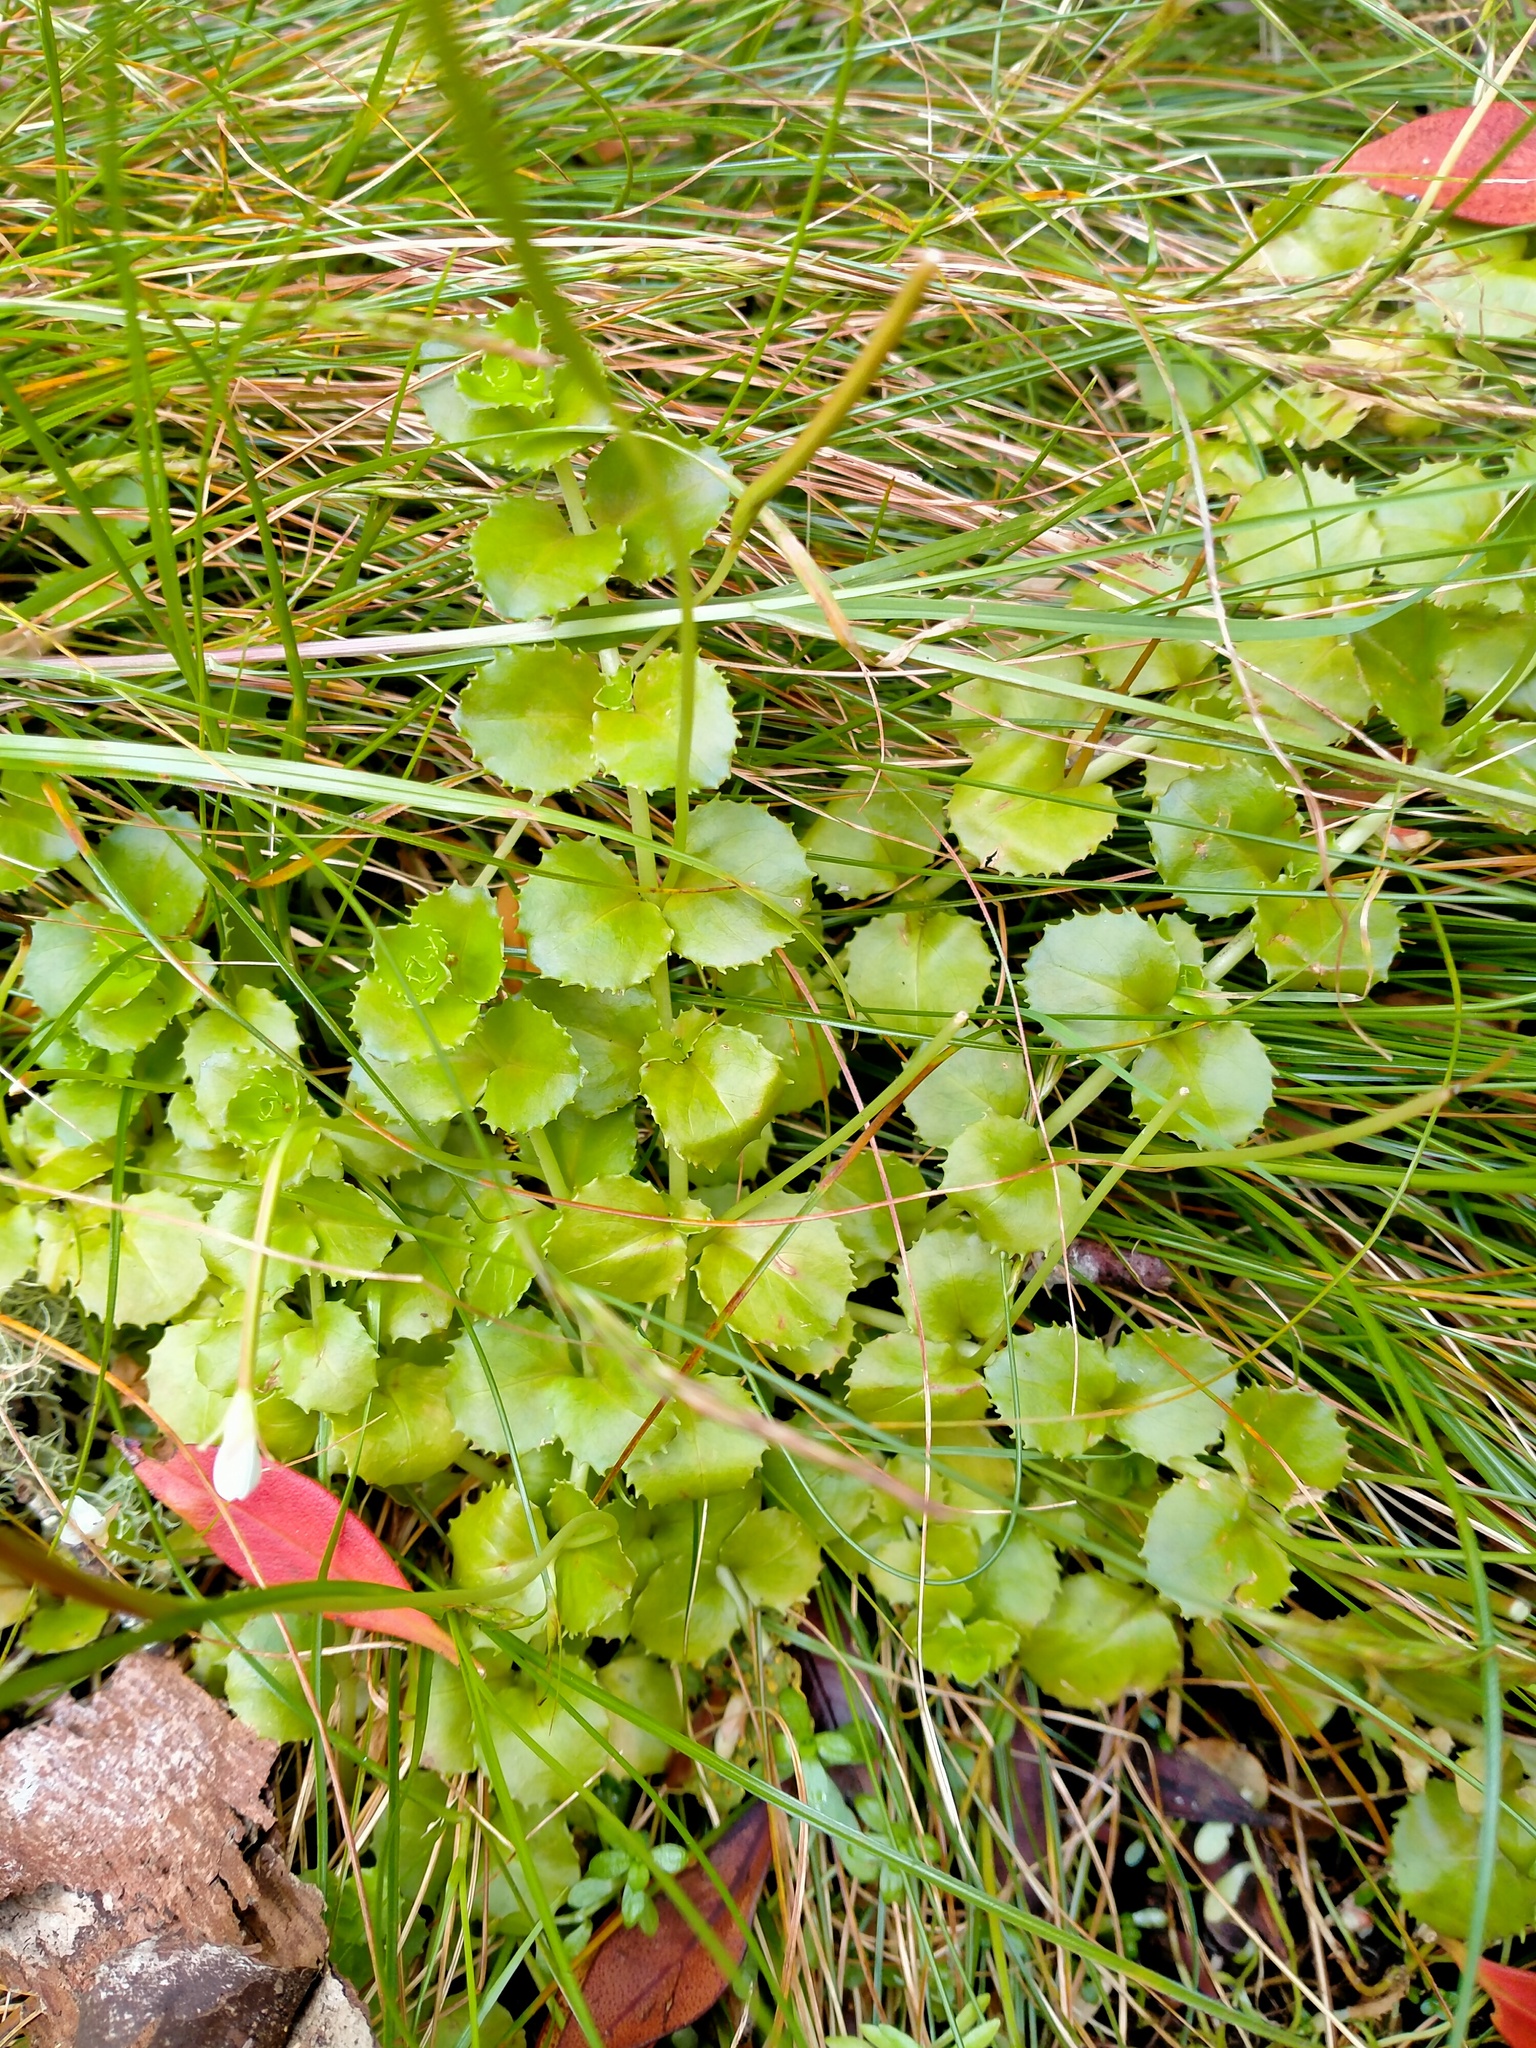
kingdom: Plantae
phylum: Tracheophyta
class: Magnoliopsida
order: Myrtales
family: Onagraceae
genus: Epilobium
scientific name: Epilobium pedunculare
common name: Rockery willowherb
